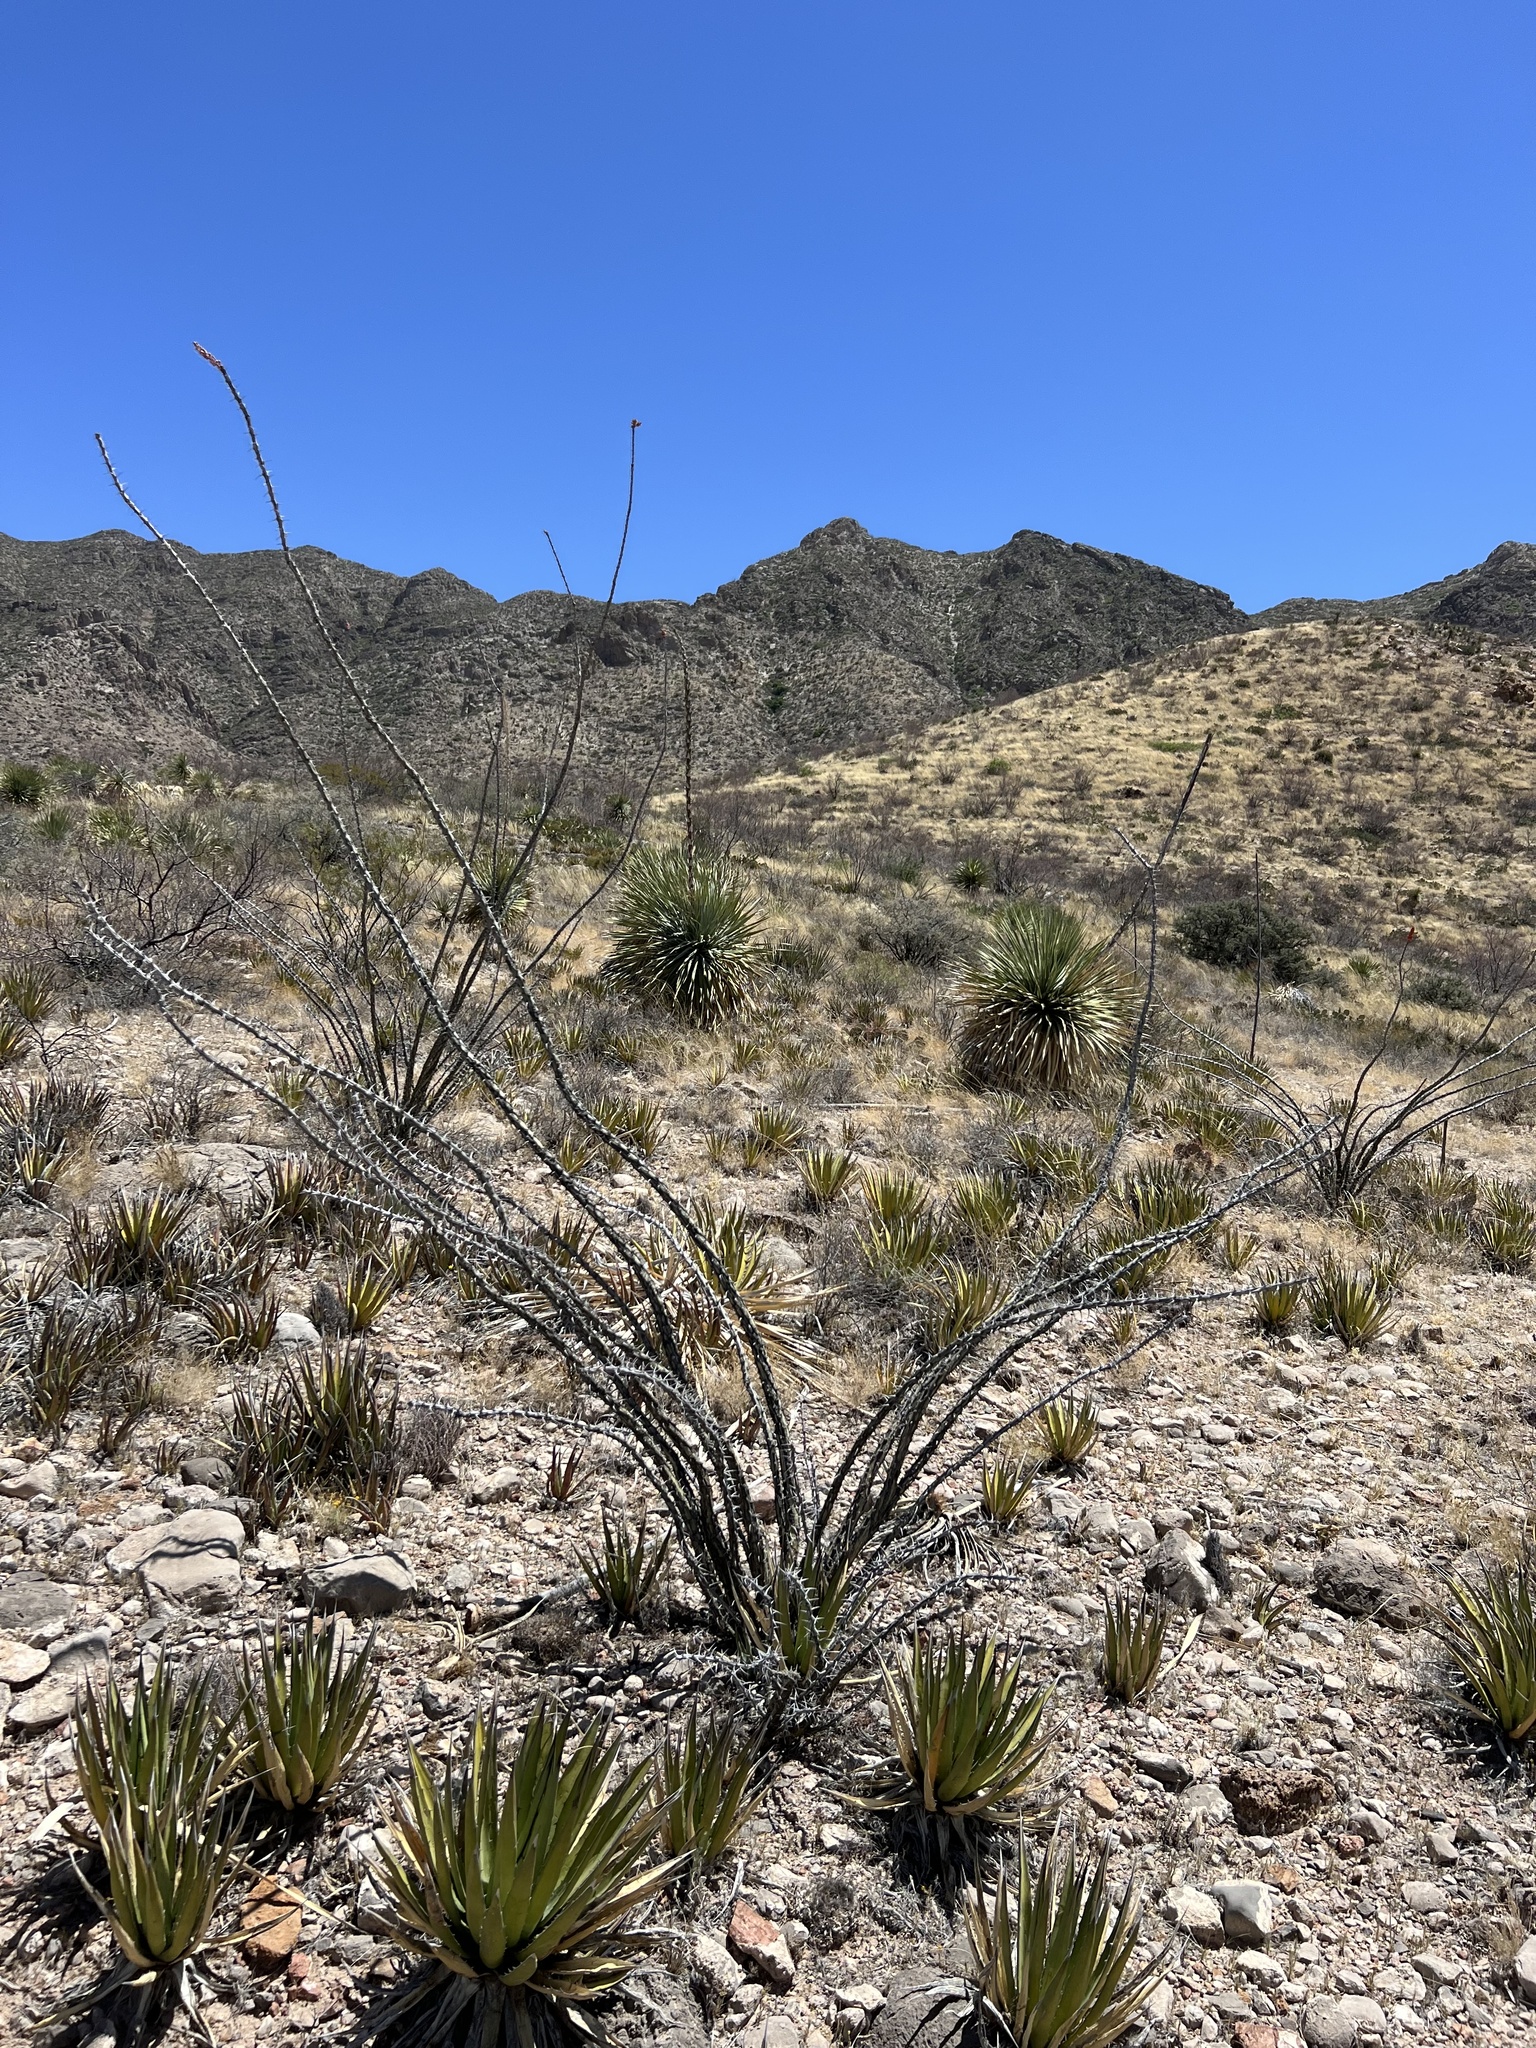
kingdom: Plantae
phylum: Tracheophyta
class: Magnoliopsida
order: Ericales
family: Fouquieriaceae
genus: Fouquieria
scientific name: Fouquieria splendens
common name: Vine-cactus
